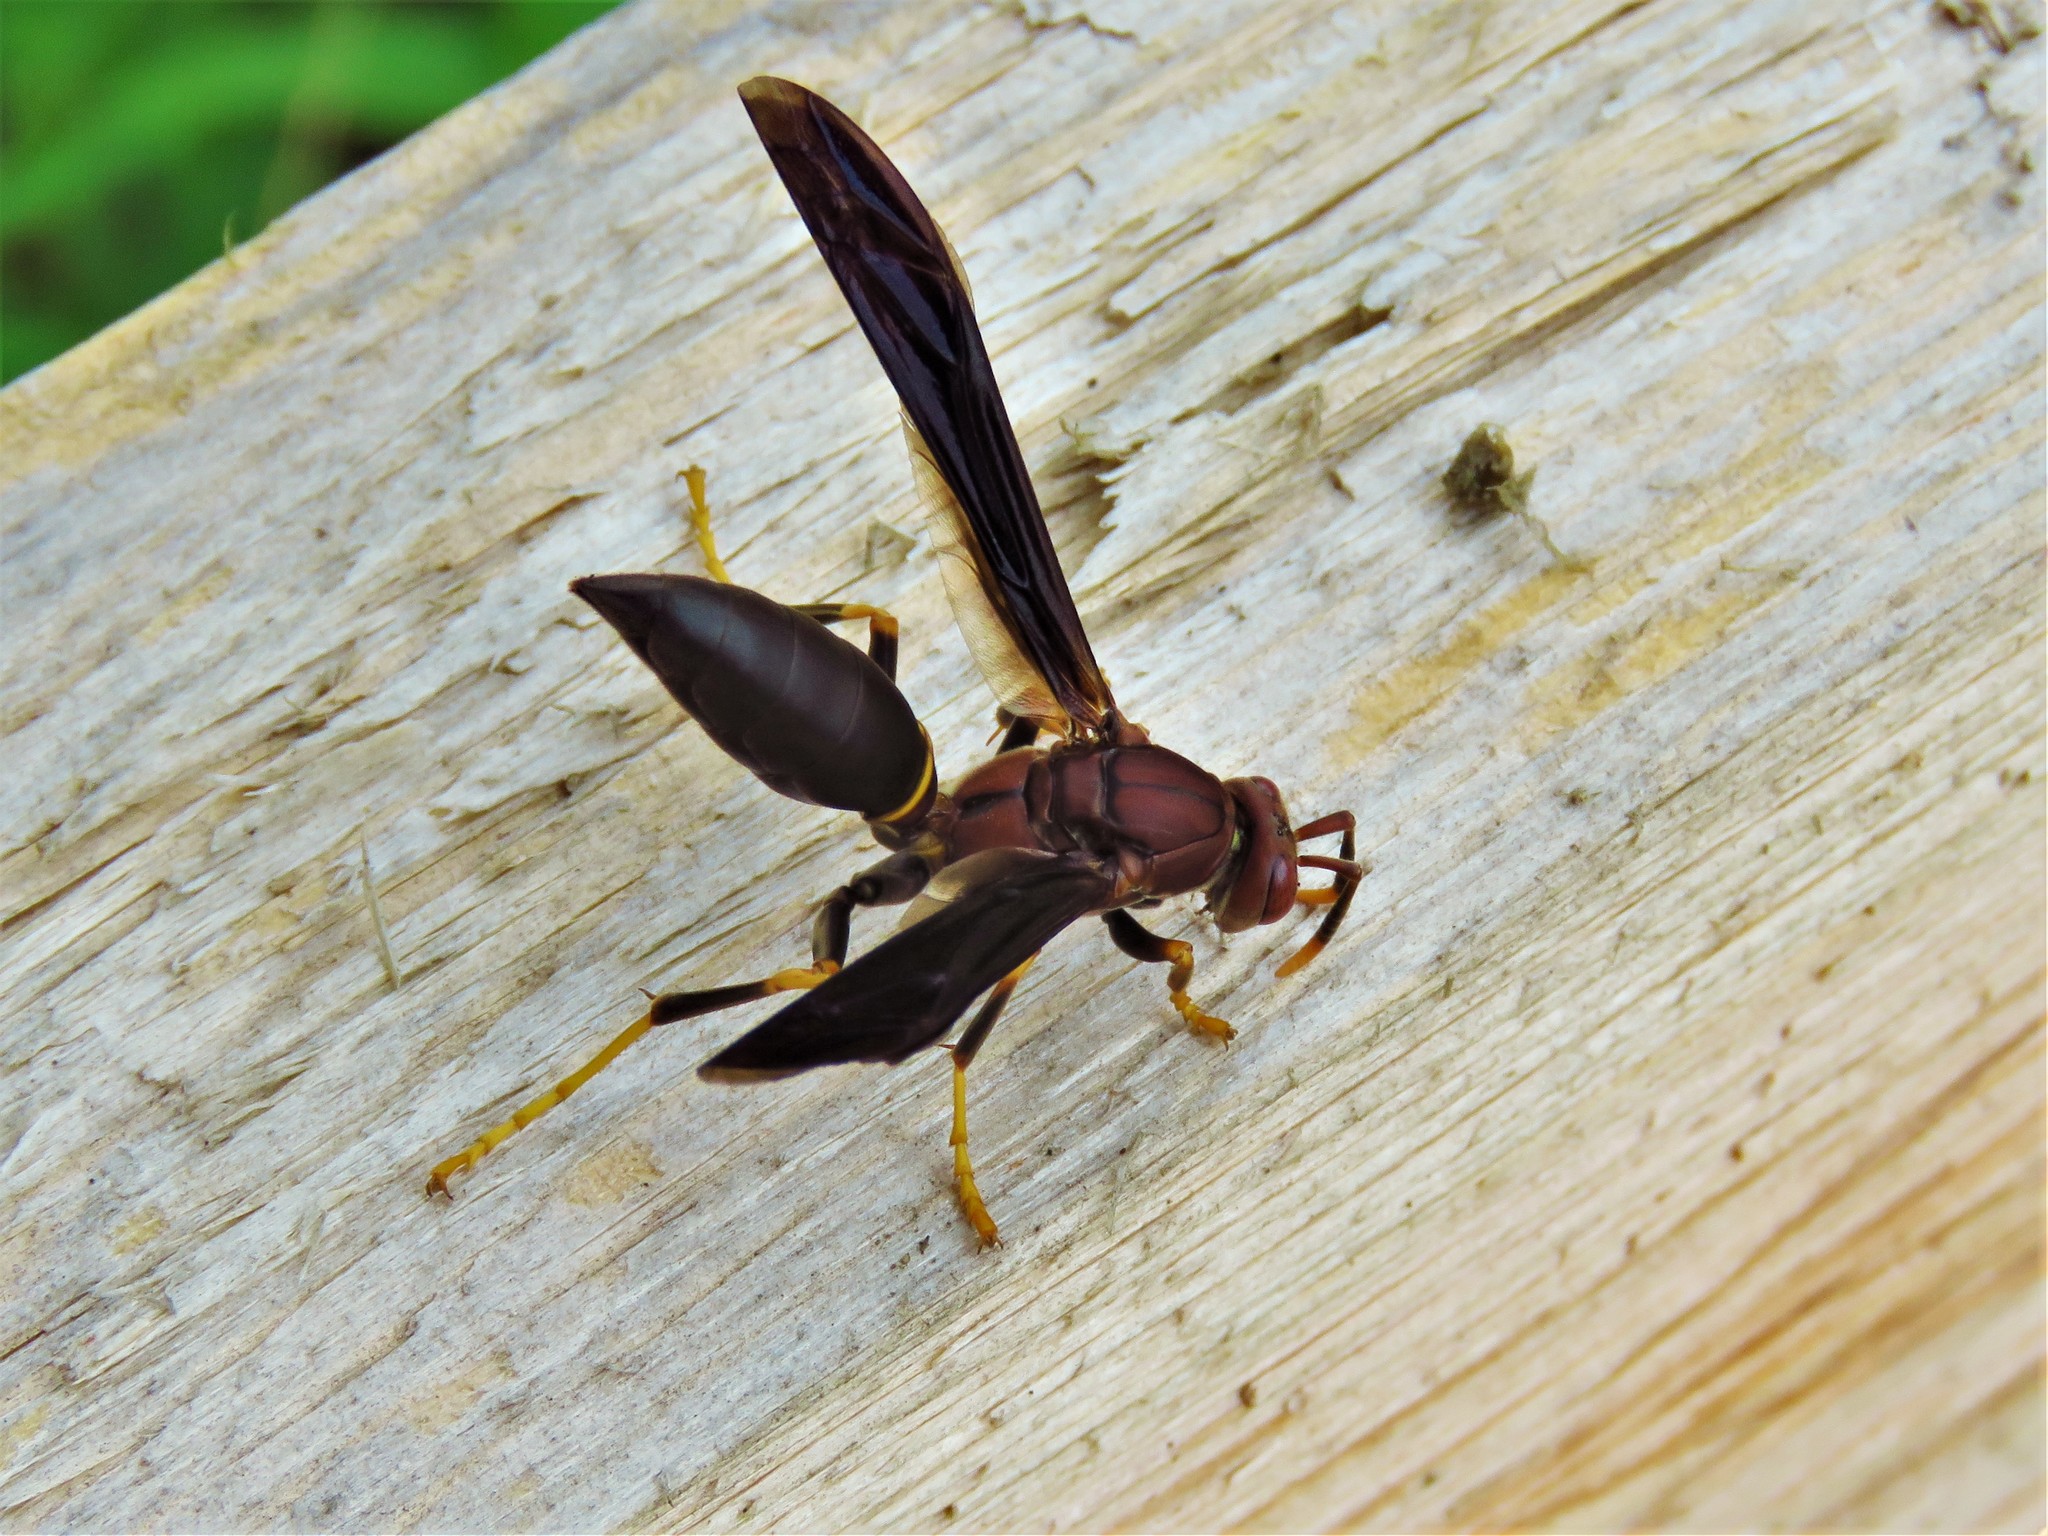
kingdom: Animalia
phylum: Arthropoda
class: Insecta
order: Hymenoptera
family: Eumenidae
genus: Polistes
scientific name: Polistes annularis
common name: Ringed paper wasp
